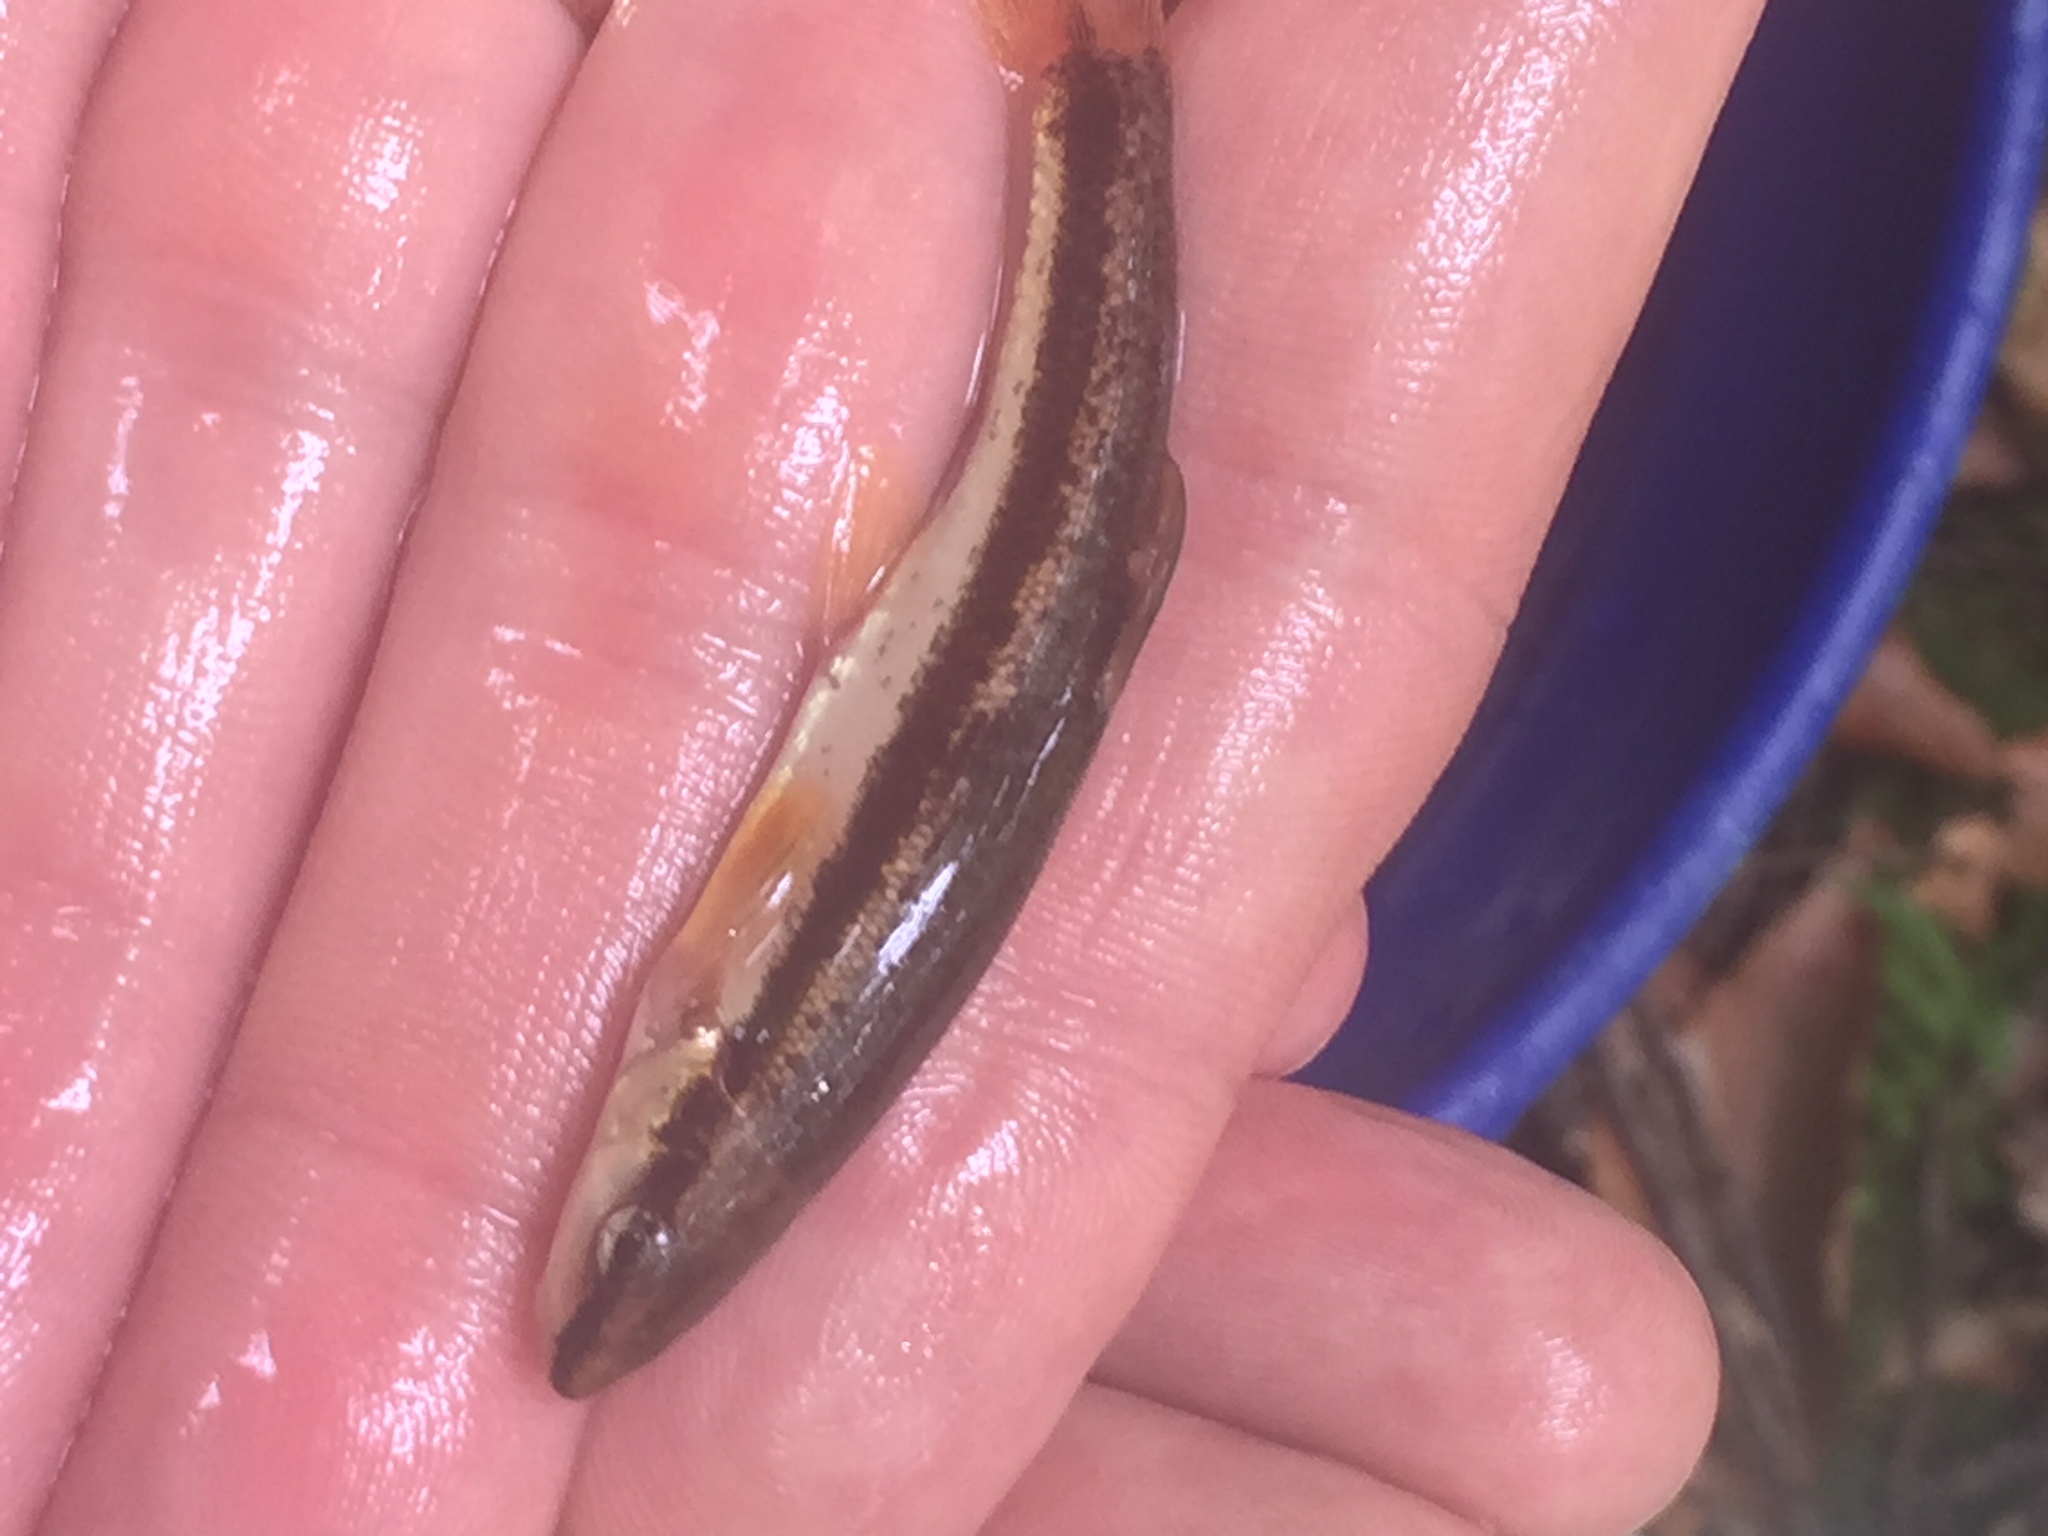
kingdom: Animalia
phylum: Chordata
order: Cypriniformes
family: Cyprinidae
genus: Rhinichthys
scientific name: Rhinichthys atratulus
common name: Eastern blacknose dace
